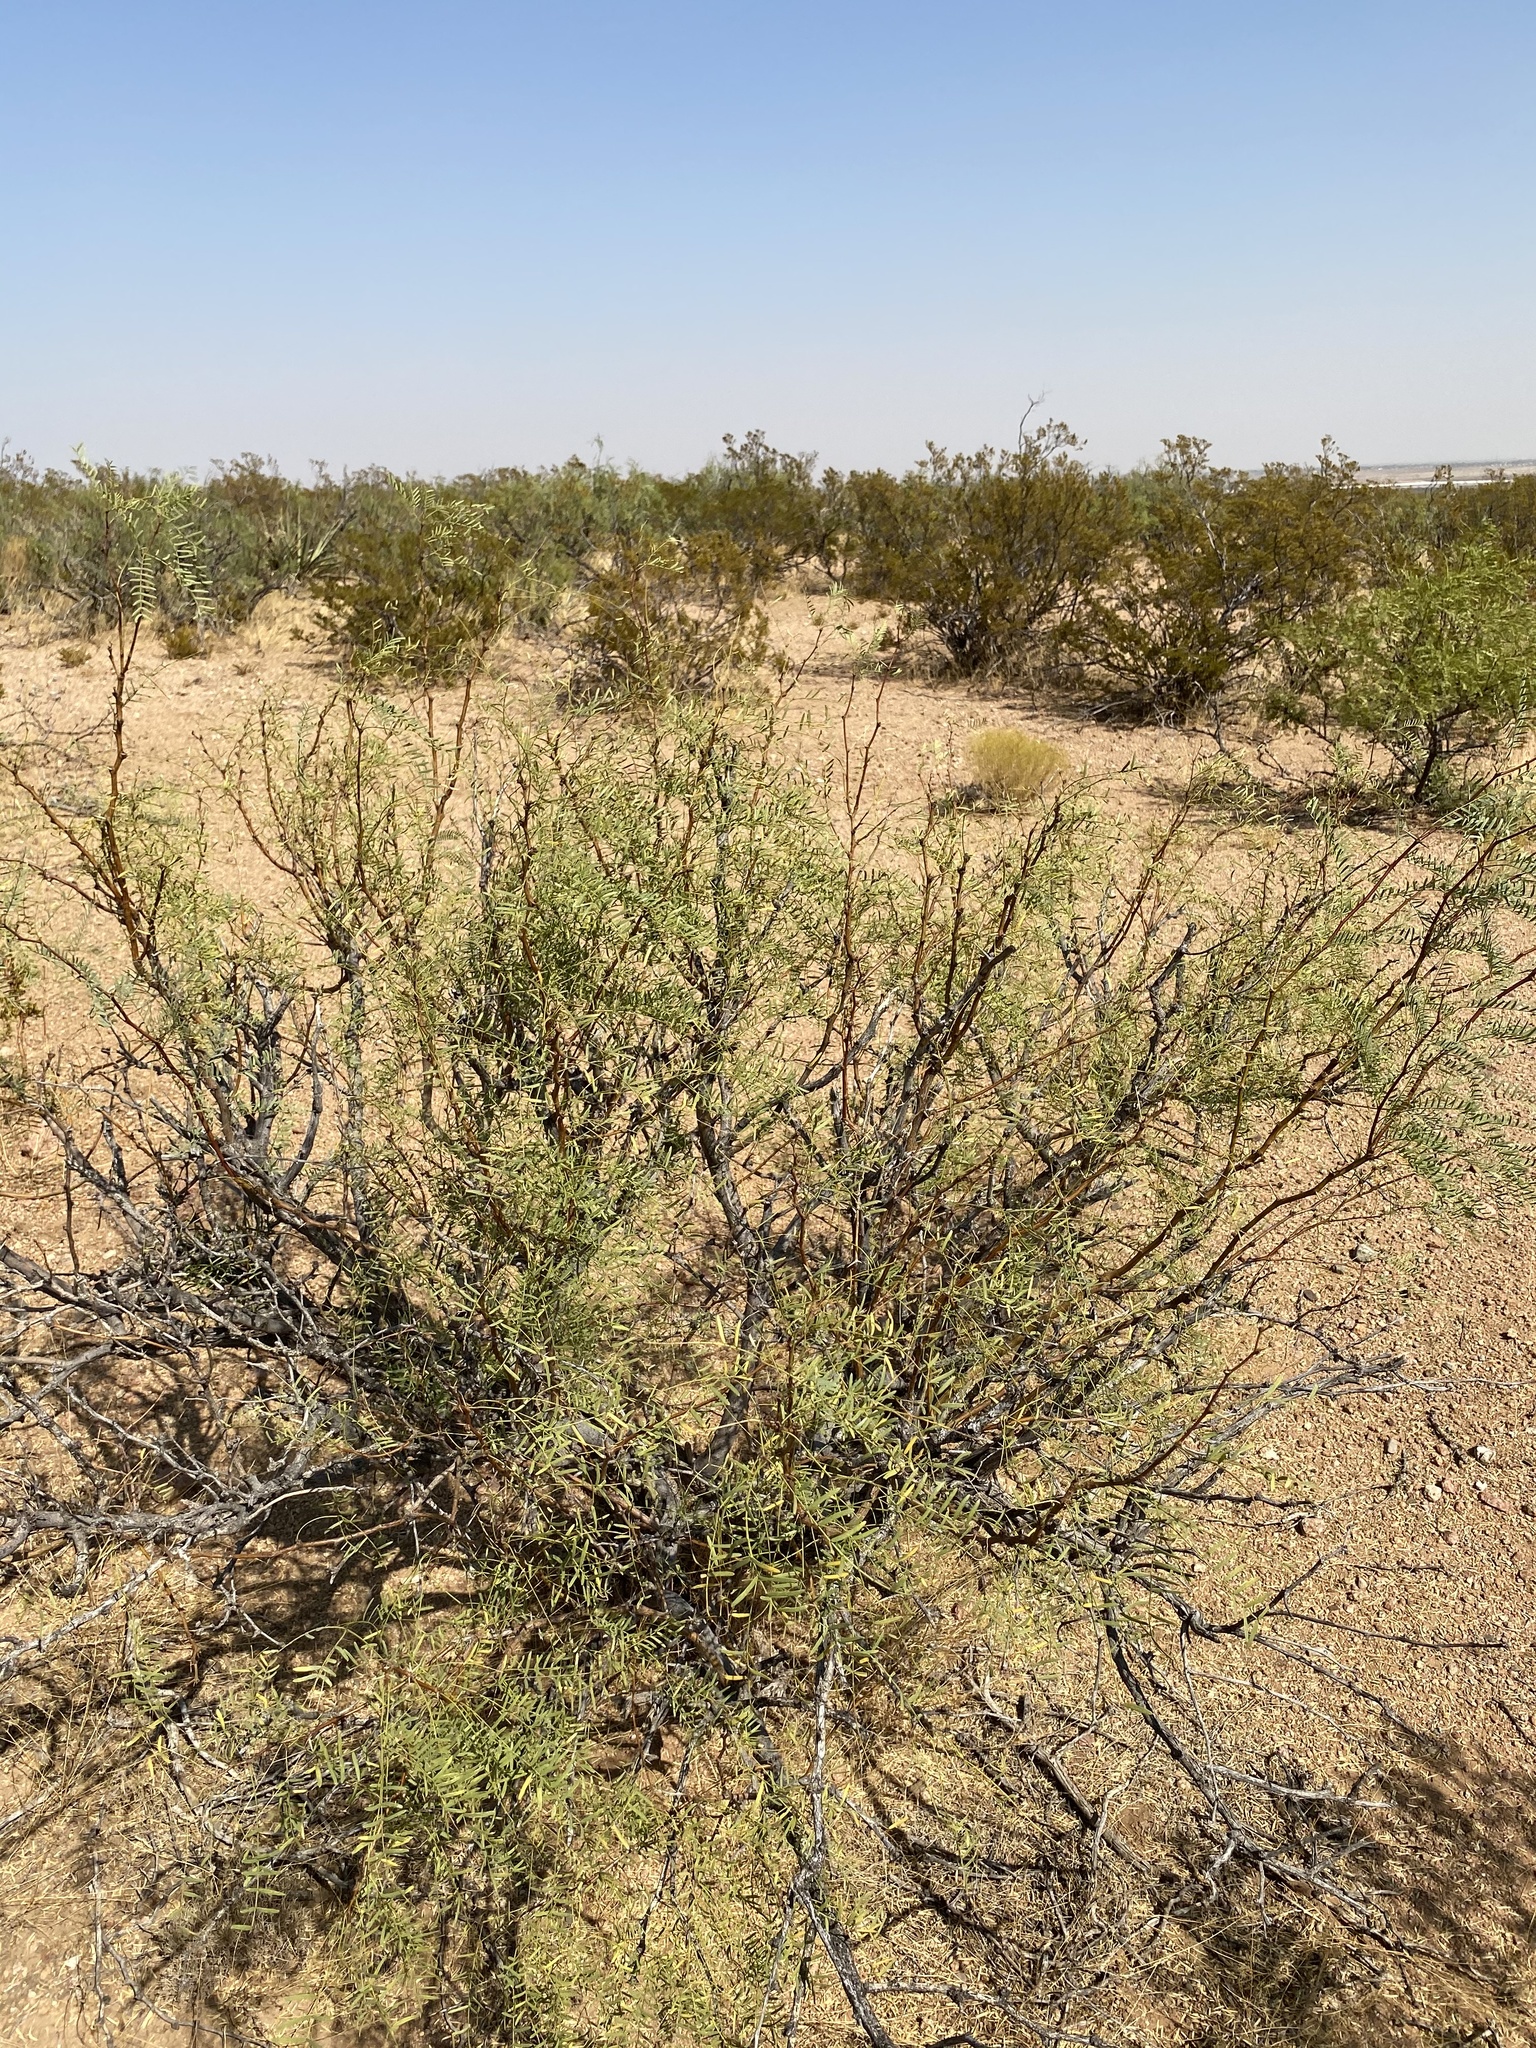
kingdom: Plantae
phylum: Tracheophyta
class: Magnoliopsida
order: Fabales
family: Fabaceae
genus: Prosopis
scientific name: Prosopis glandulosa
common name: Honey mesquite
